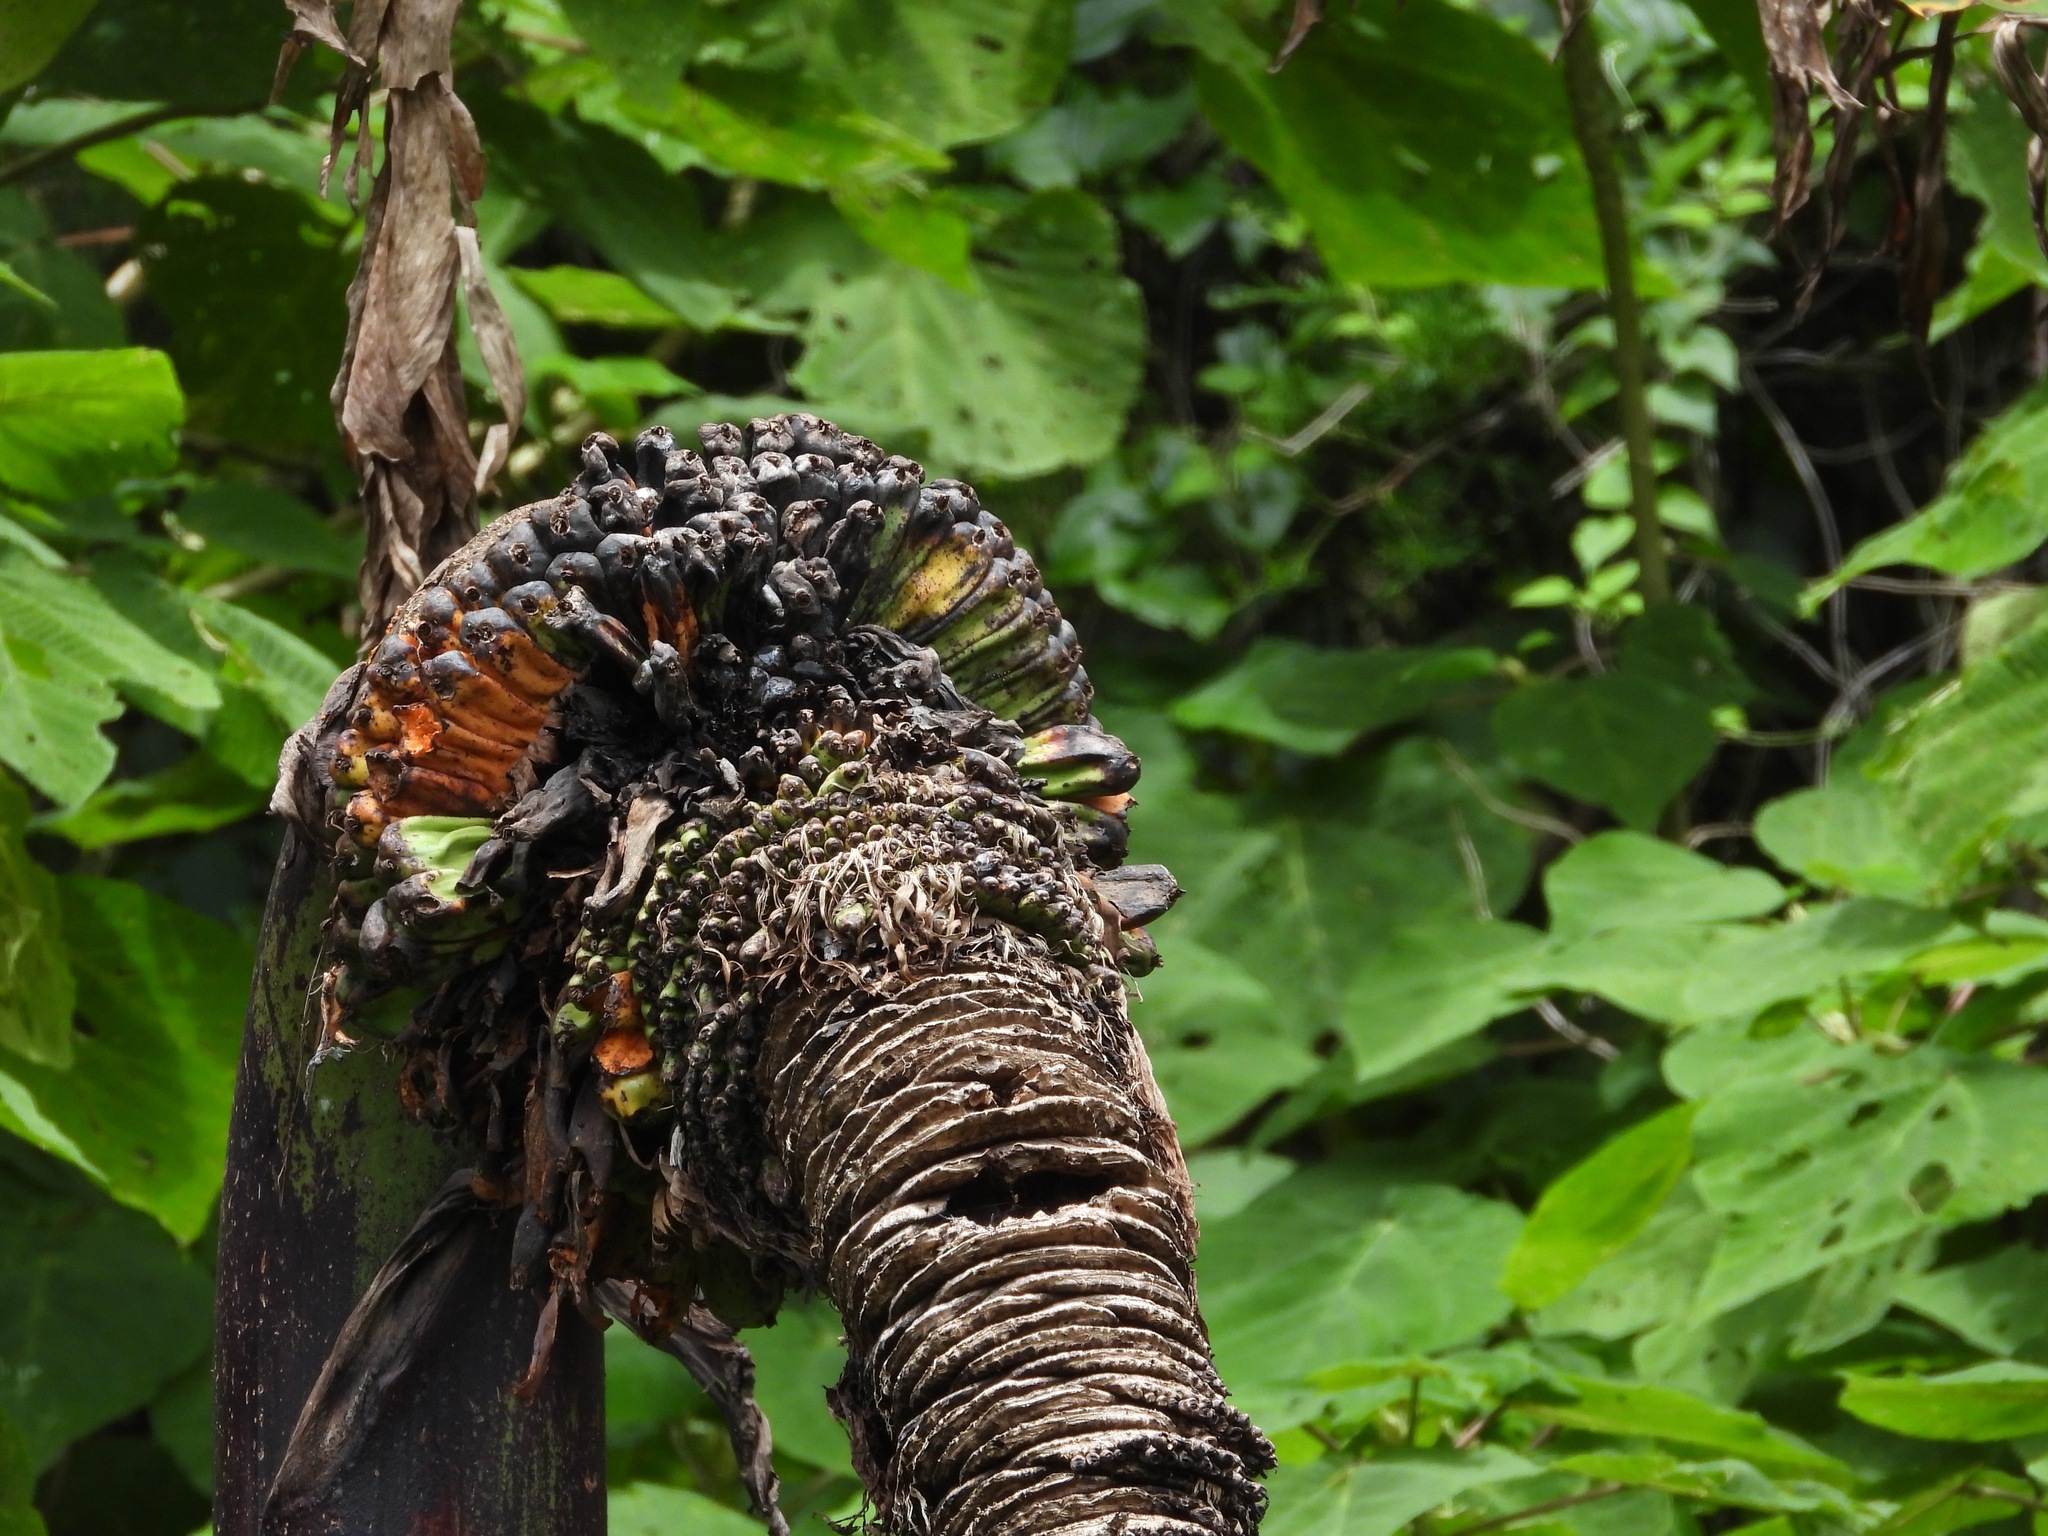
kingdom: Plantae
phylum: Tracheophyta
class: Liliopsida
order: Zingiberales
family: Musaceae
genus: Ensete
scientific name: Ensete ventricosum
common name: Abyssinian banana
